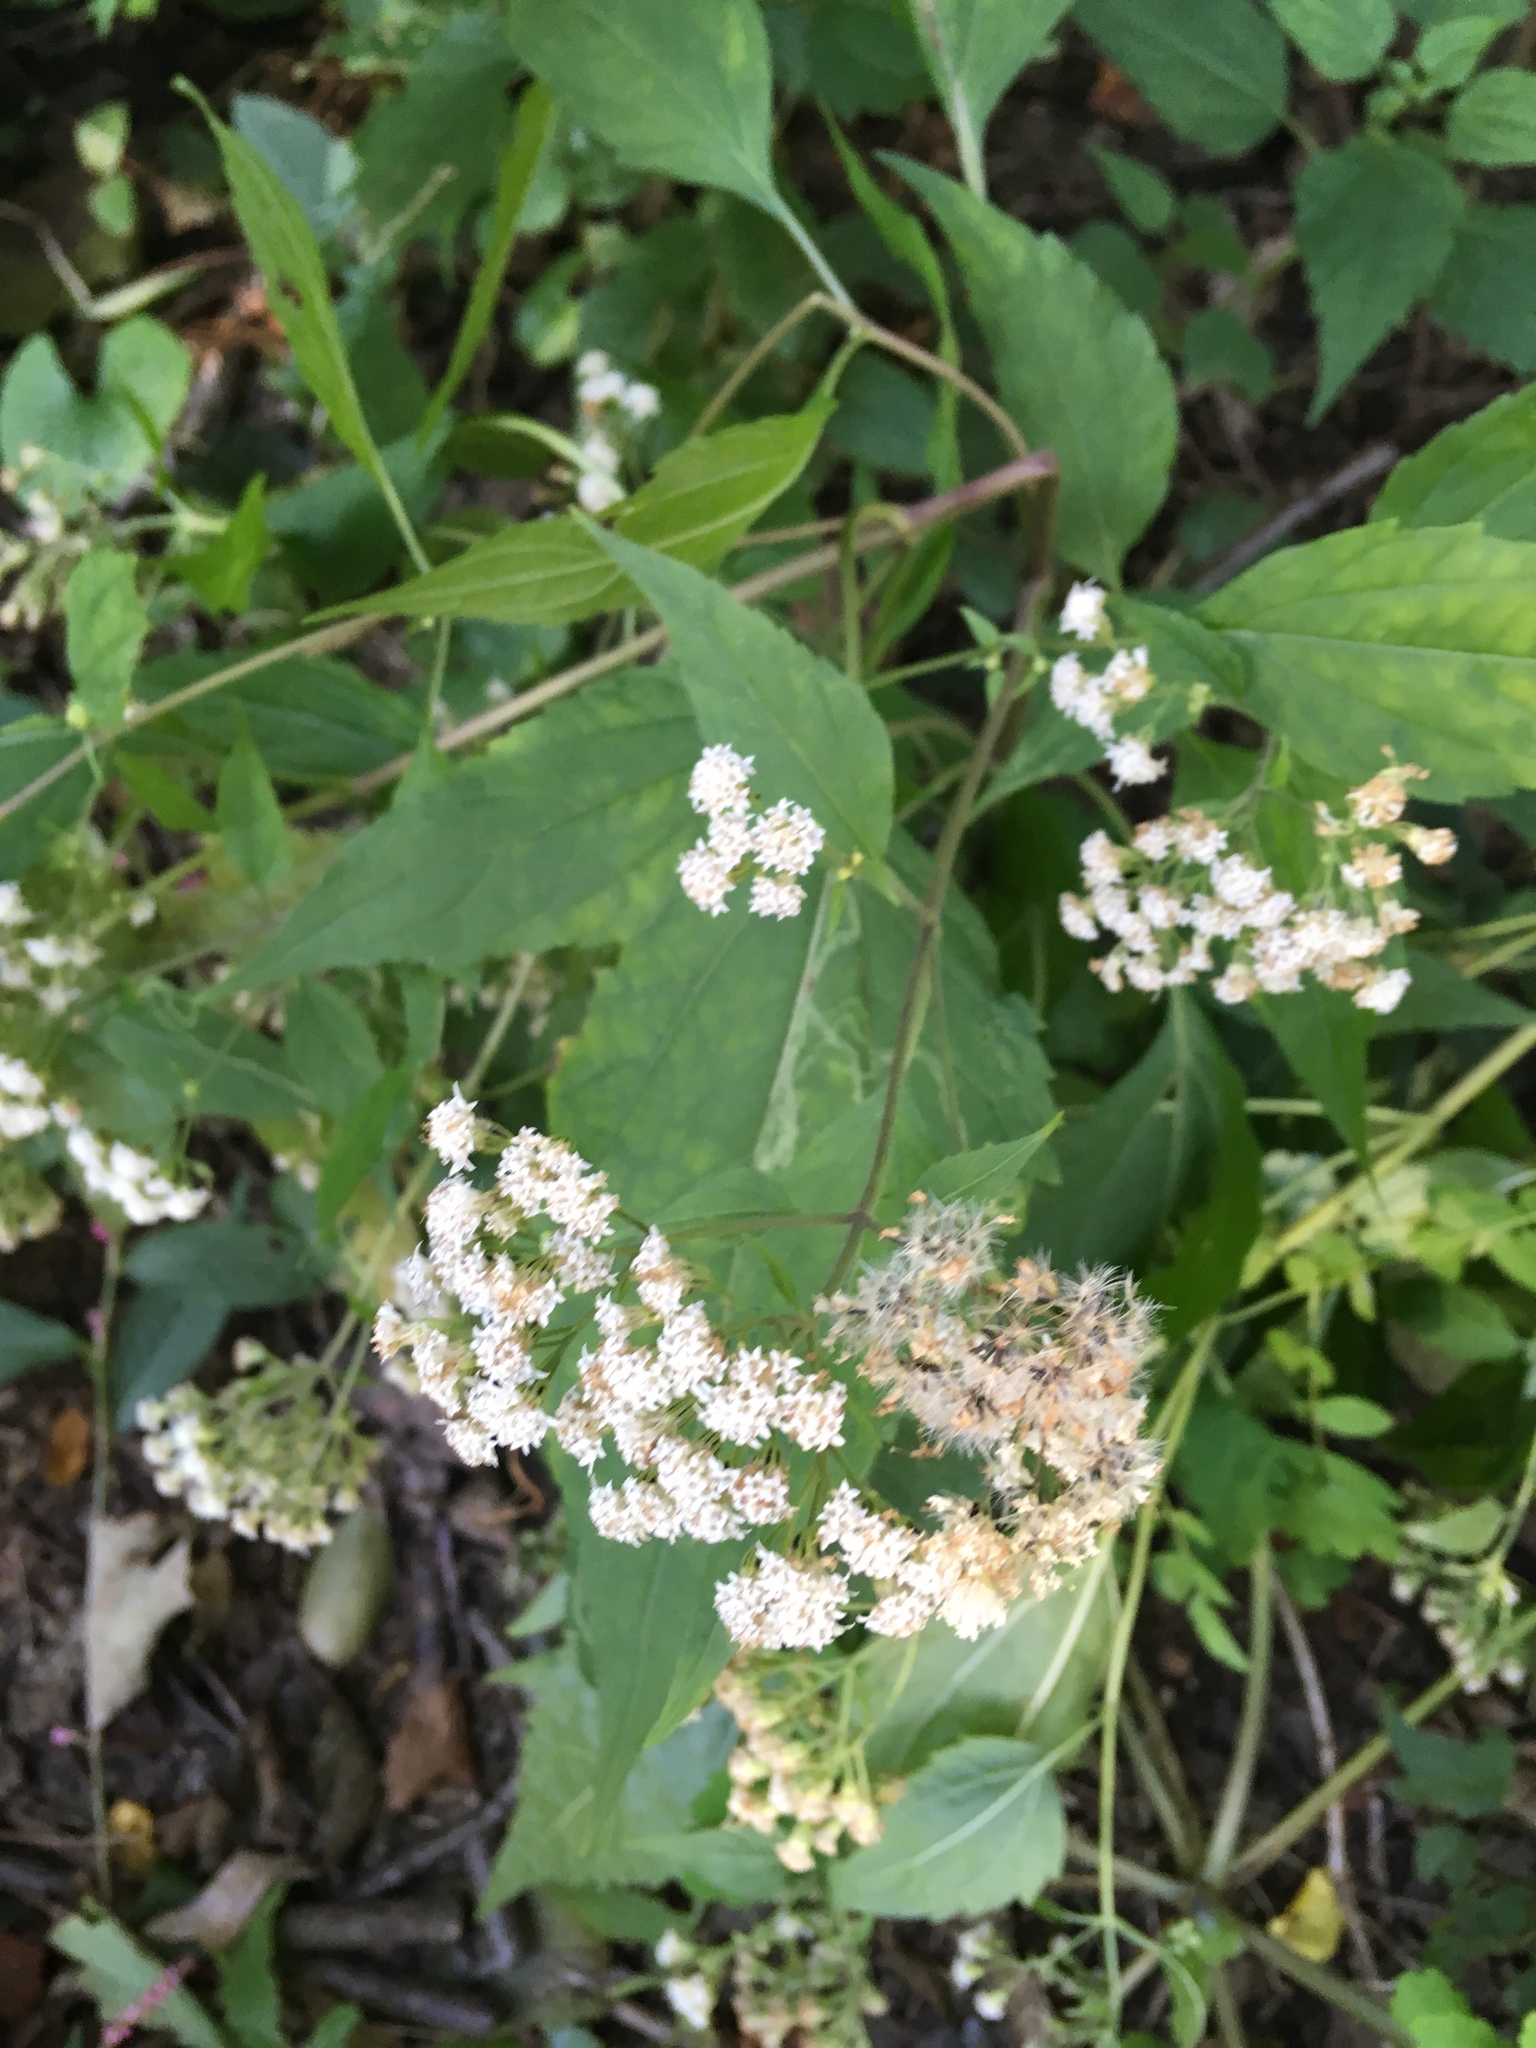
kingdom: Plantae
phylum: Tracheophyta
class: Magnoliopsida
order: Asterales
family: Asteraceae
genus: Ageratina
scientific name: Ageratina altissima
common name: White snakeroot
